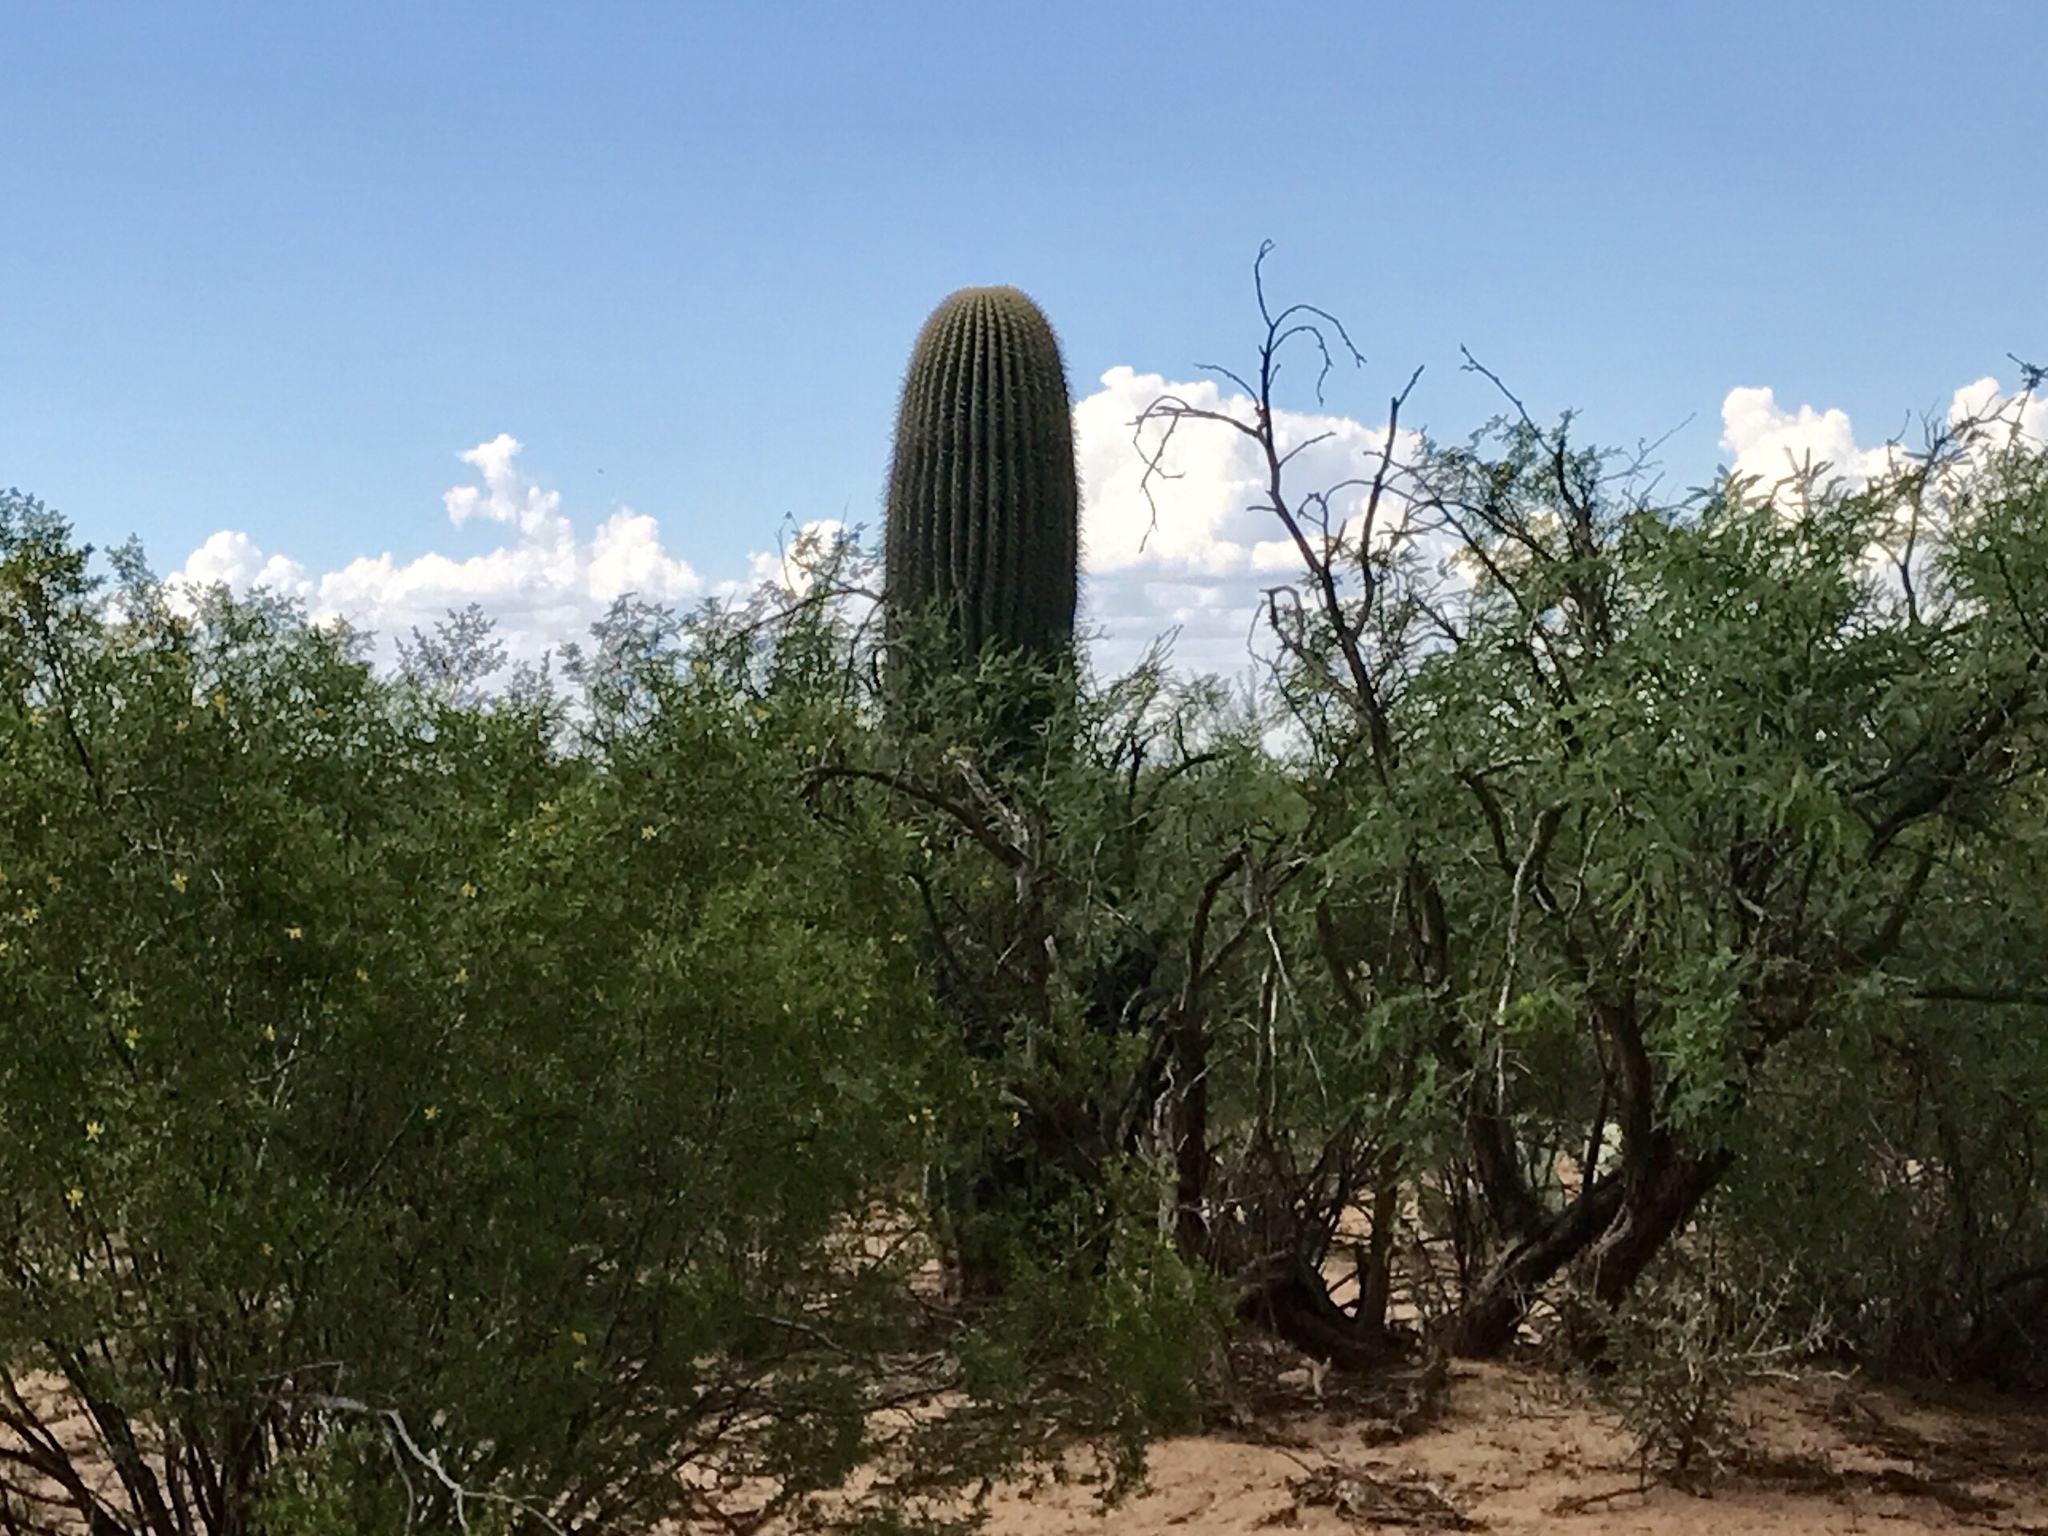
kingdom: Plantae
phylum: Tracheophyta
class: Magnoliopsida
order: Caryophyllales
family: Cactaceae
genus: Carnegiea
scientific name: Carnegiea gigantea
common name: Saguaro
